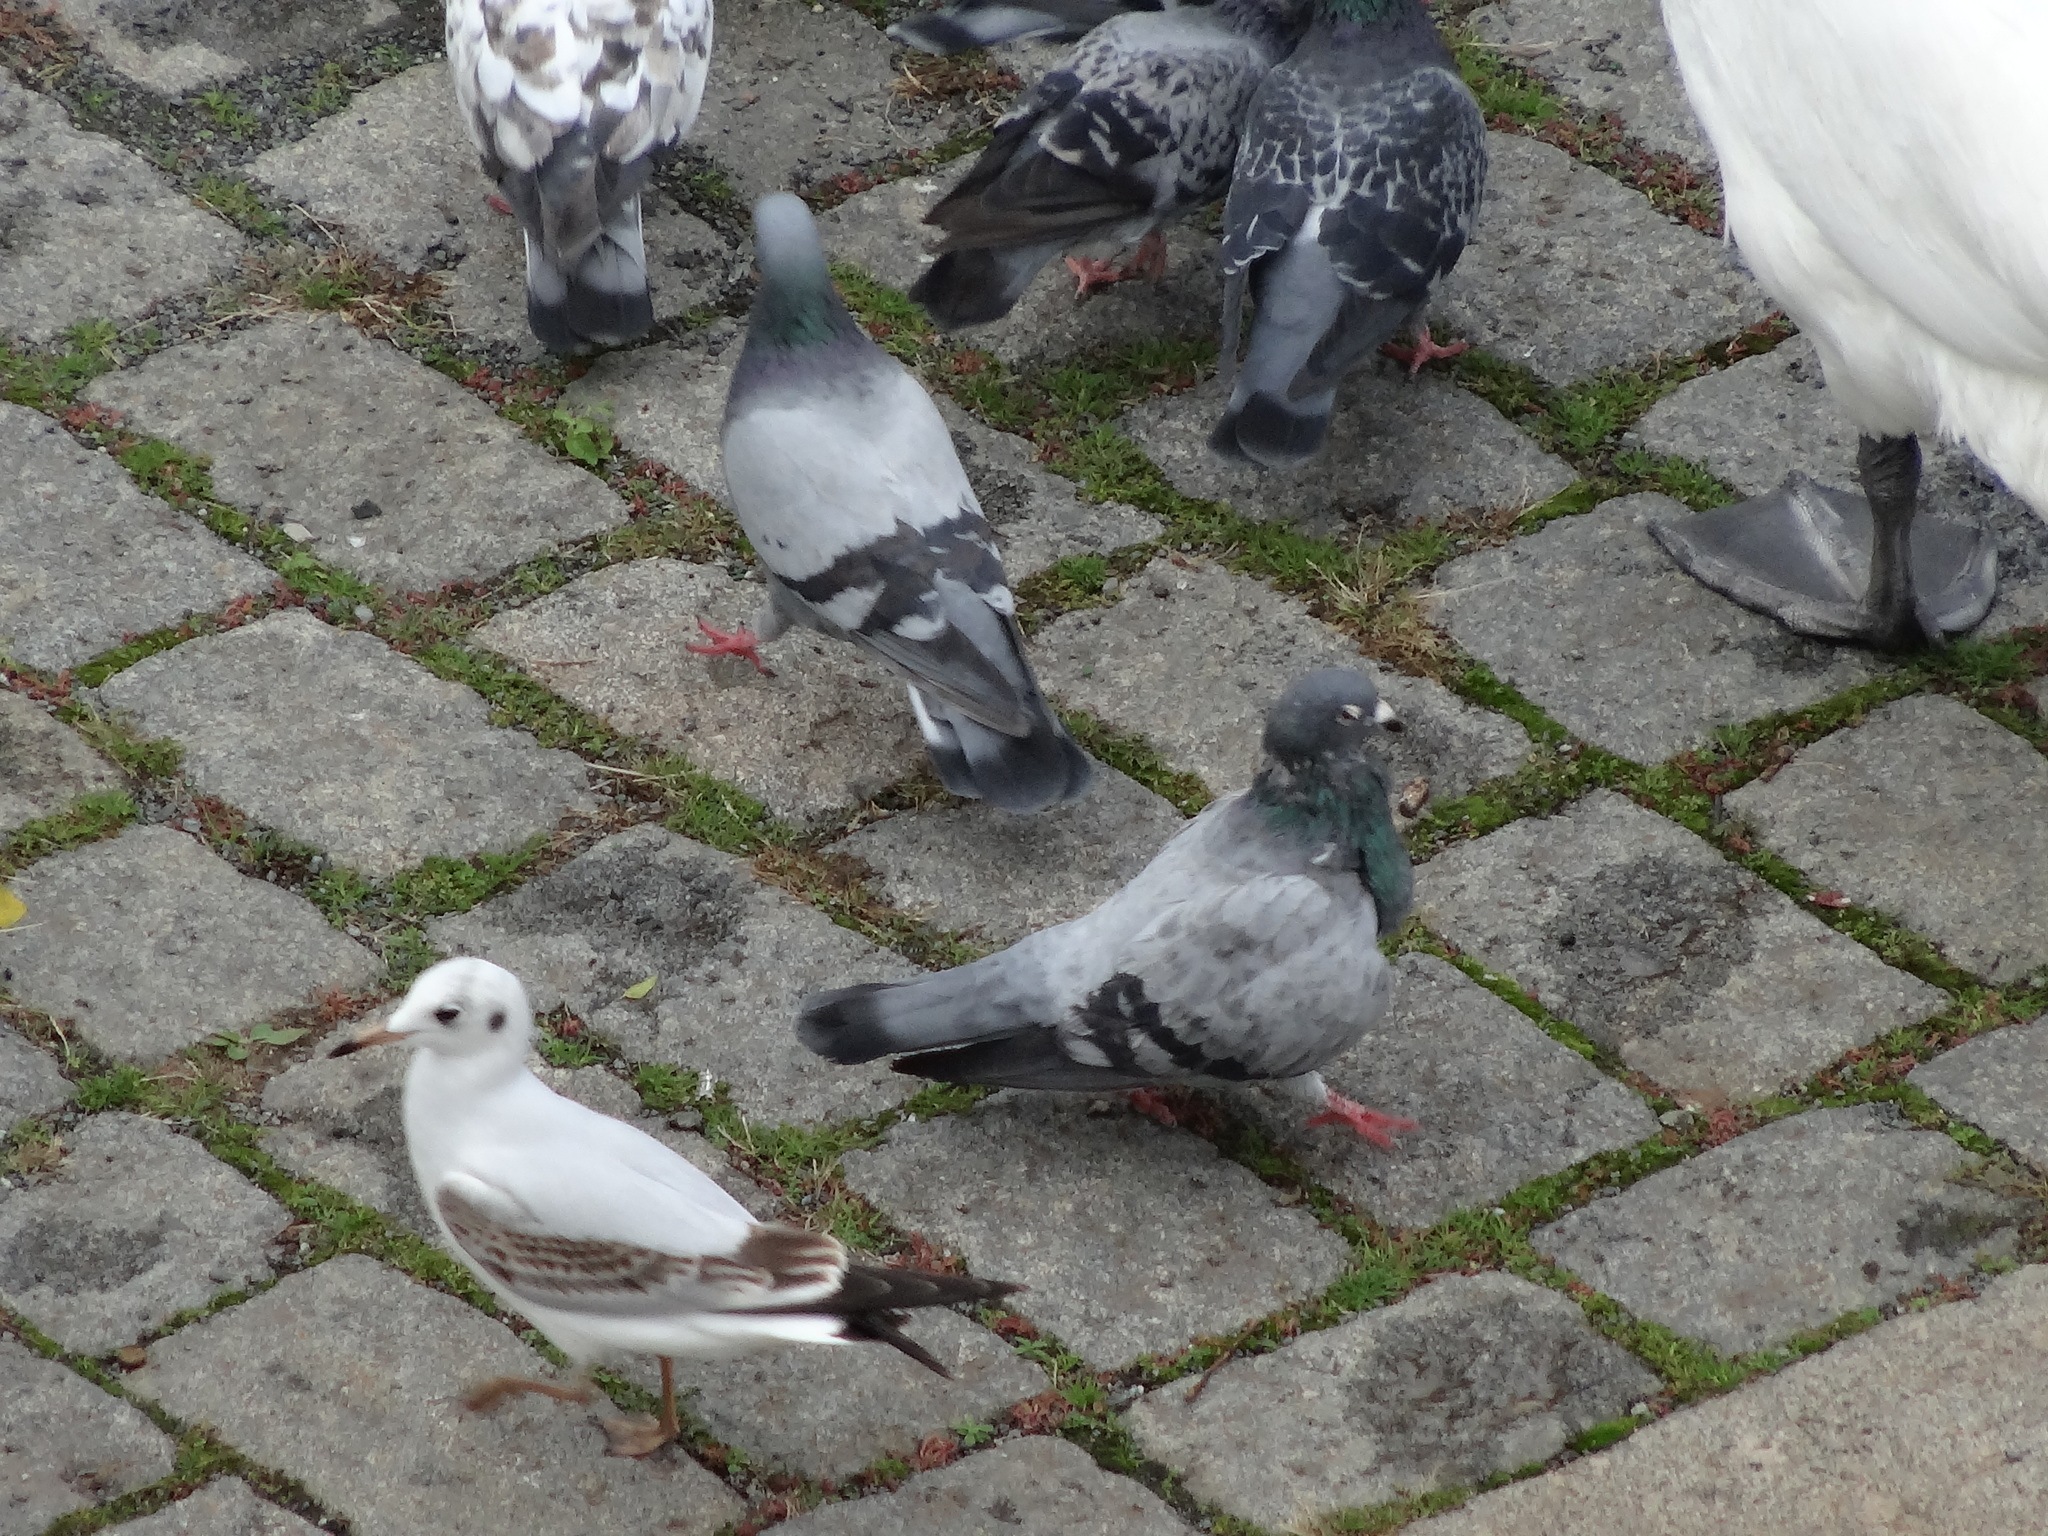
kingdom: Animalia
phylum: Chordata
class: Aves
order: Columbiformes
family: Columbidae
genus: Columba
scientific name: Columba livia
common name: Rock pigeon
